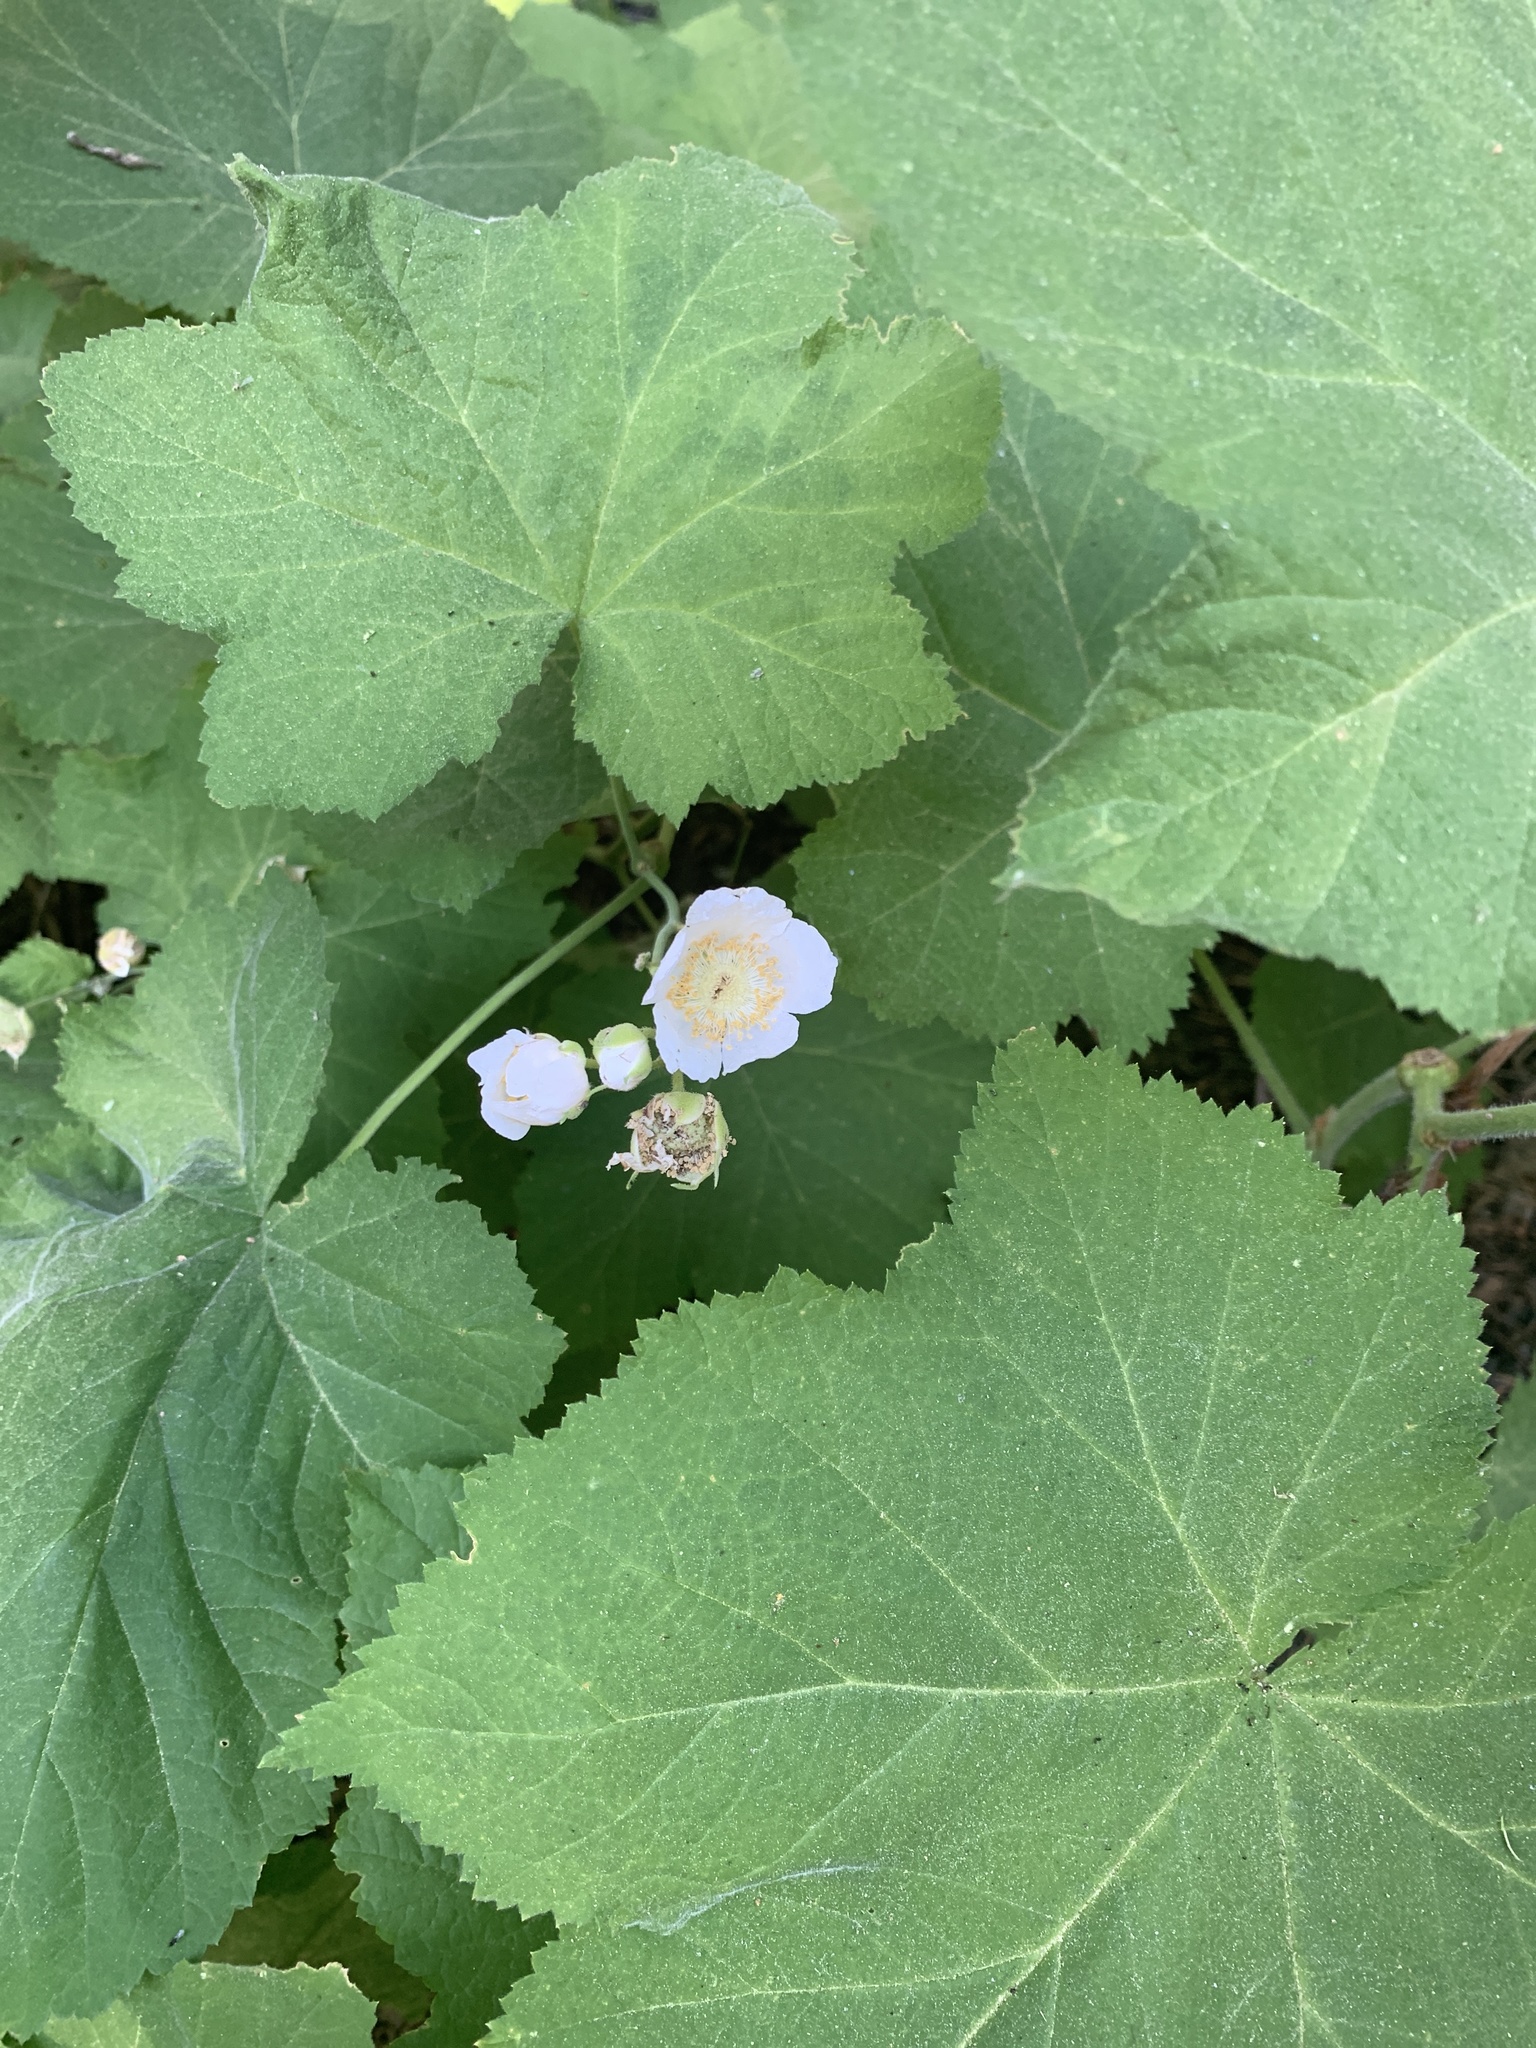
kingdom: Plantae
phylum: Tracheophyta
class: Magnoliopsida
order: Rosales
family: Rosaceae
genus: Rubus
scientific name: Rubus parviflorus
